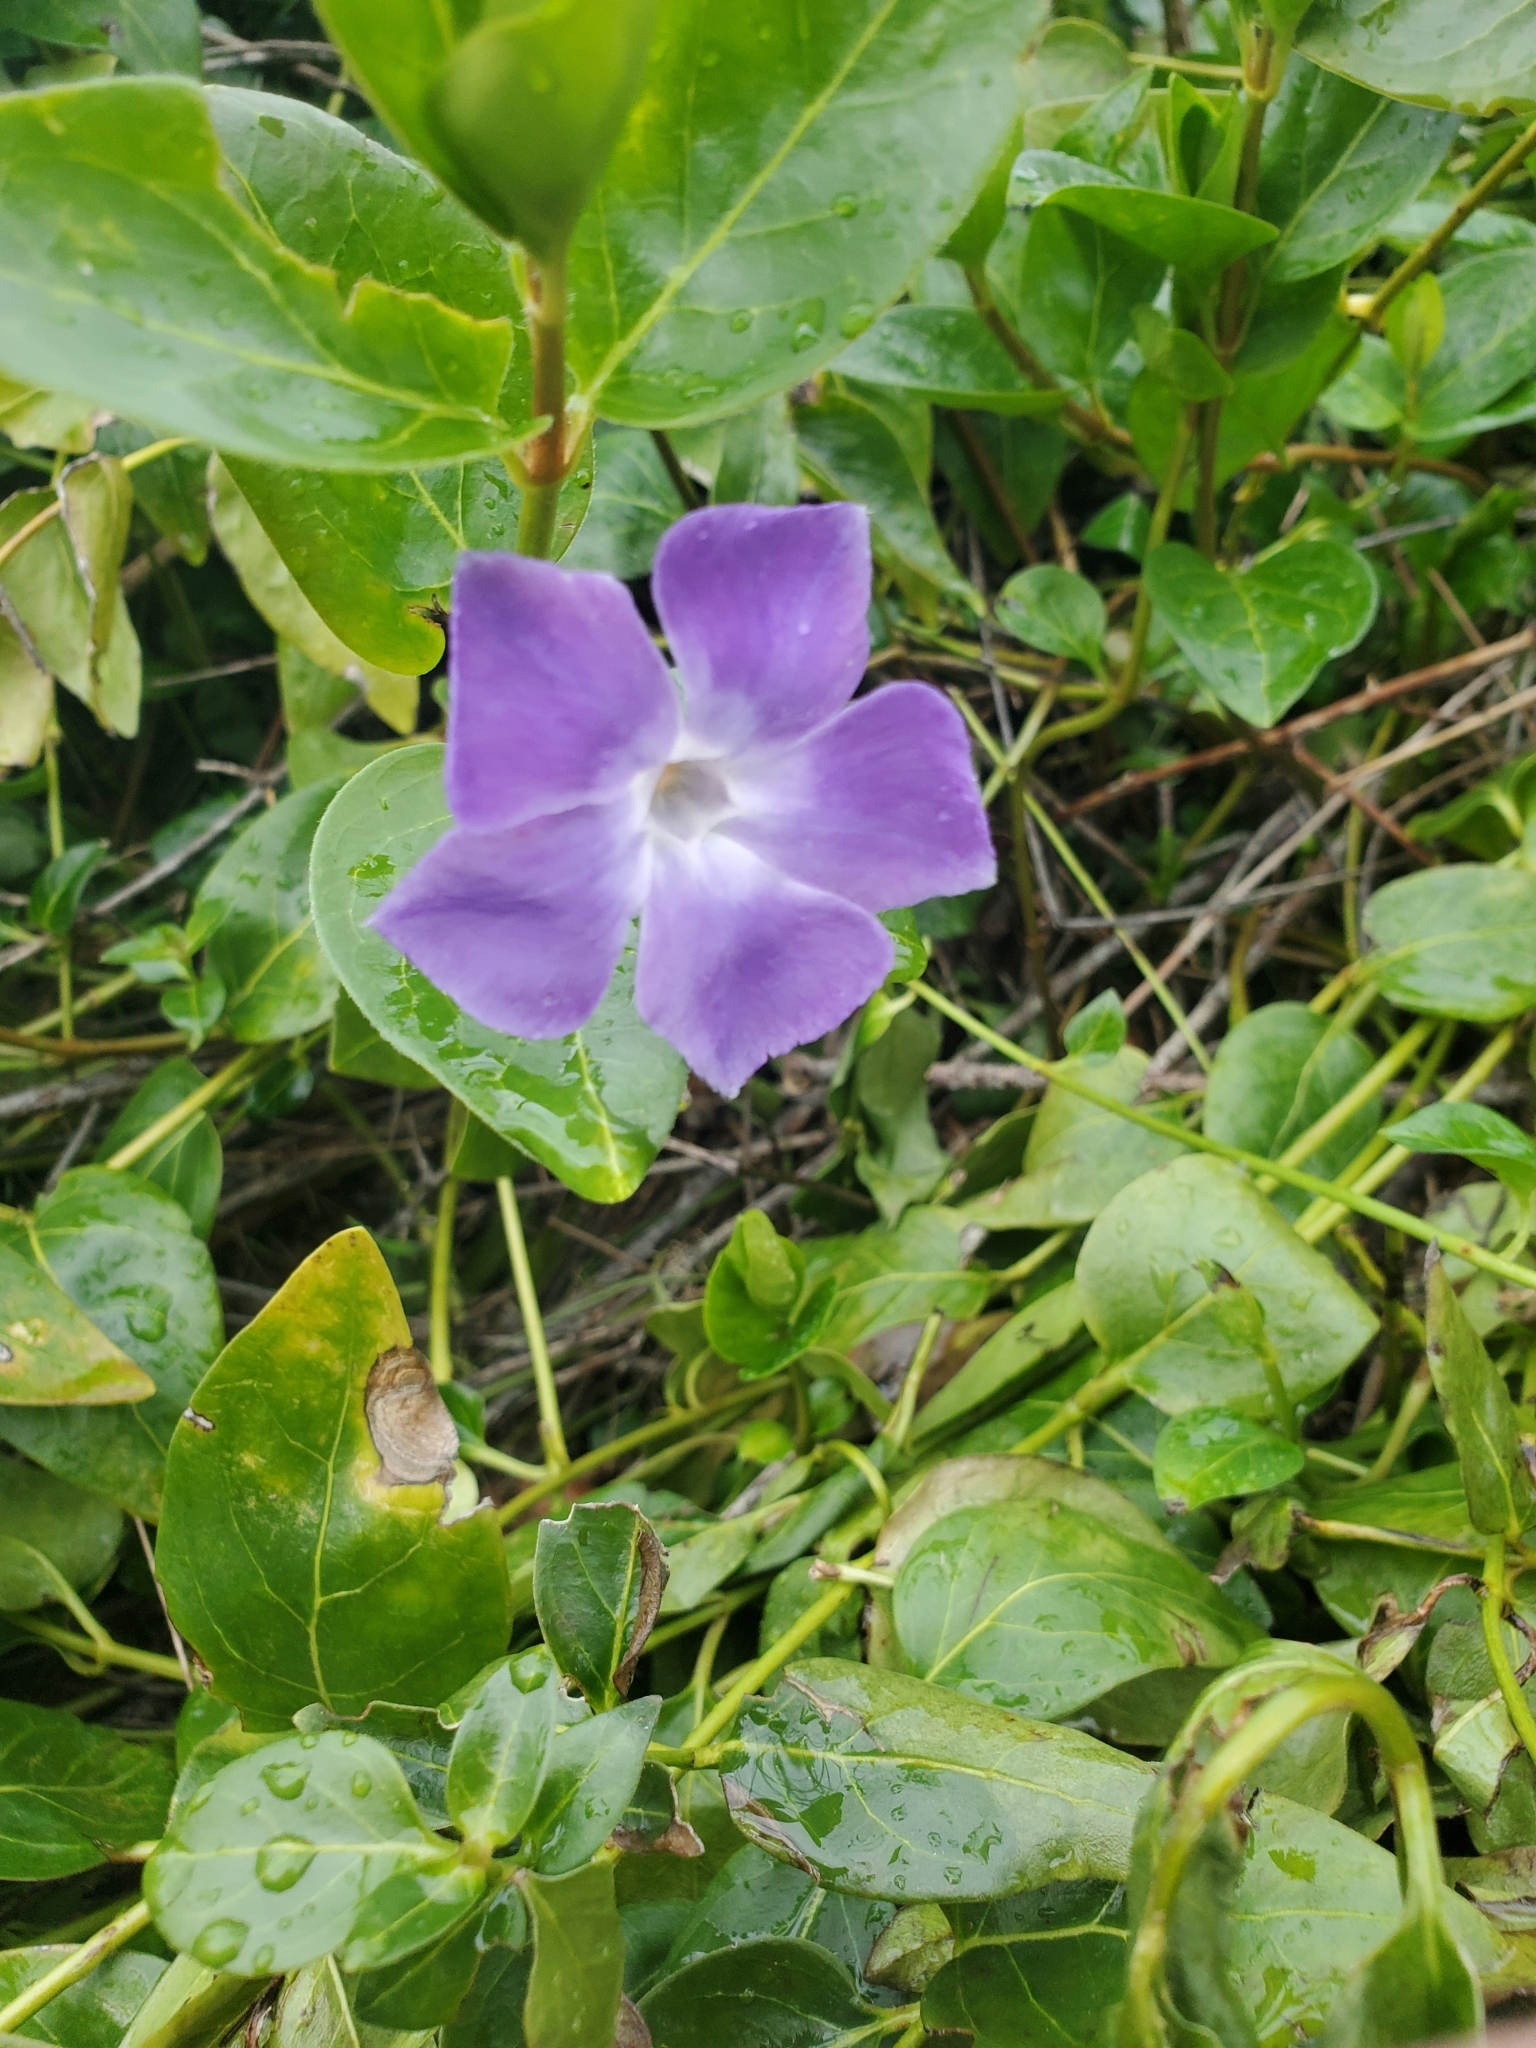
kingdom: Plantae
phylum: Tracheophyta
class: Magnoliopsida
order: Gentianales
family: Apocynaceae
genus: Vinca
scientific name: Vinca major
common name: Greater periwinkle
